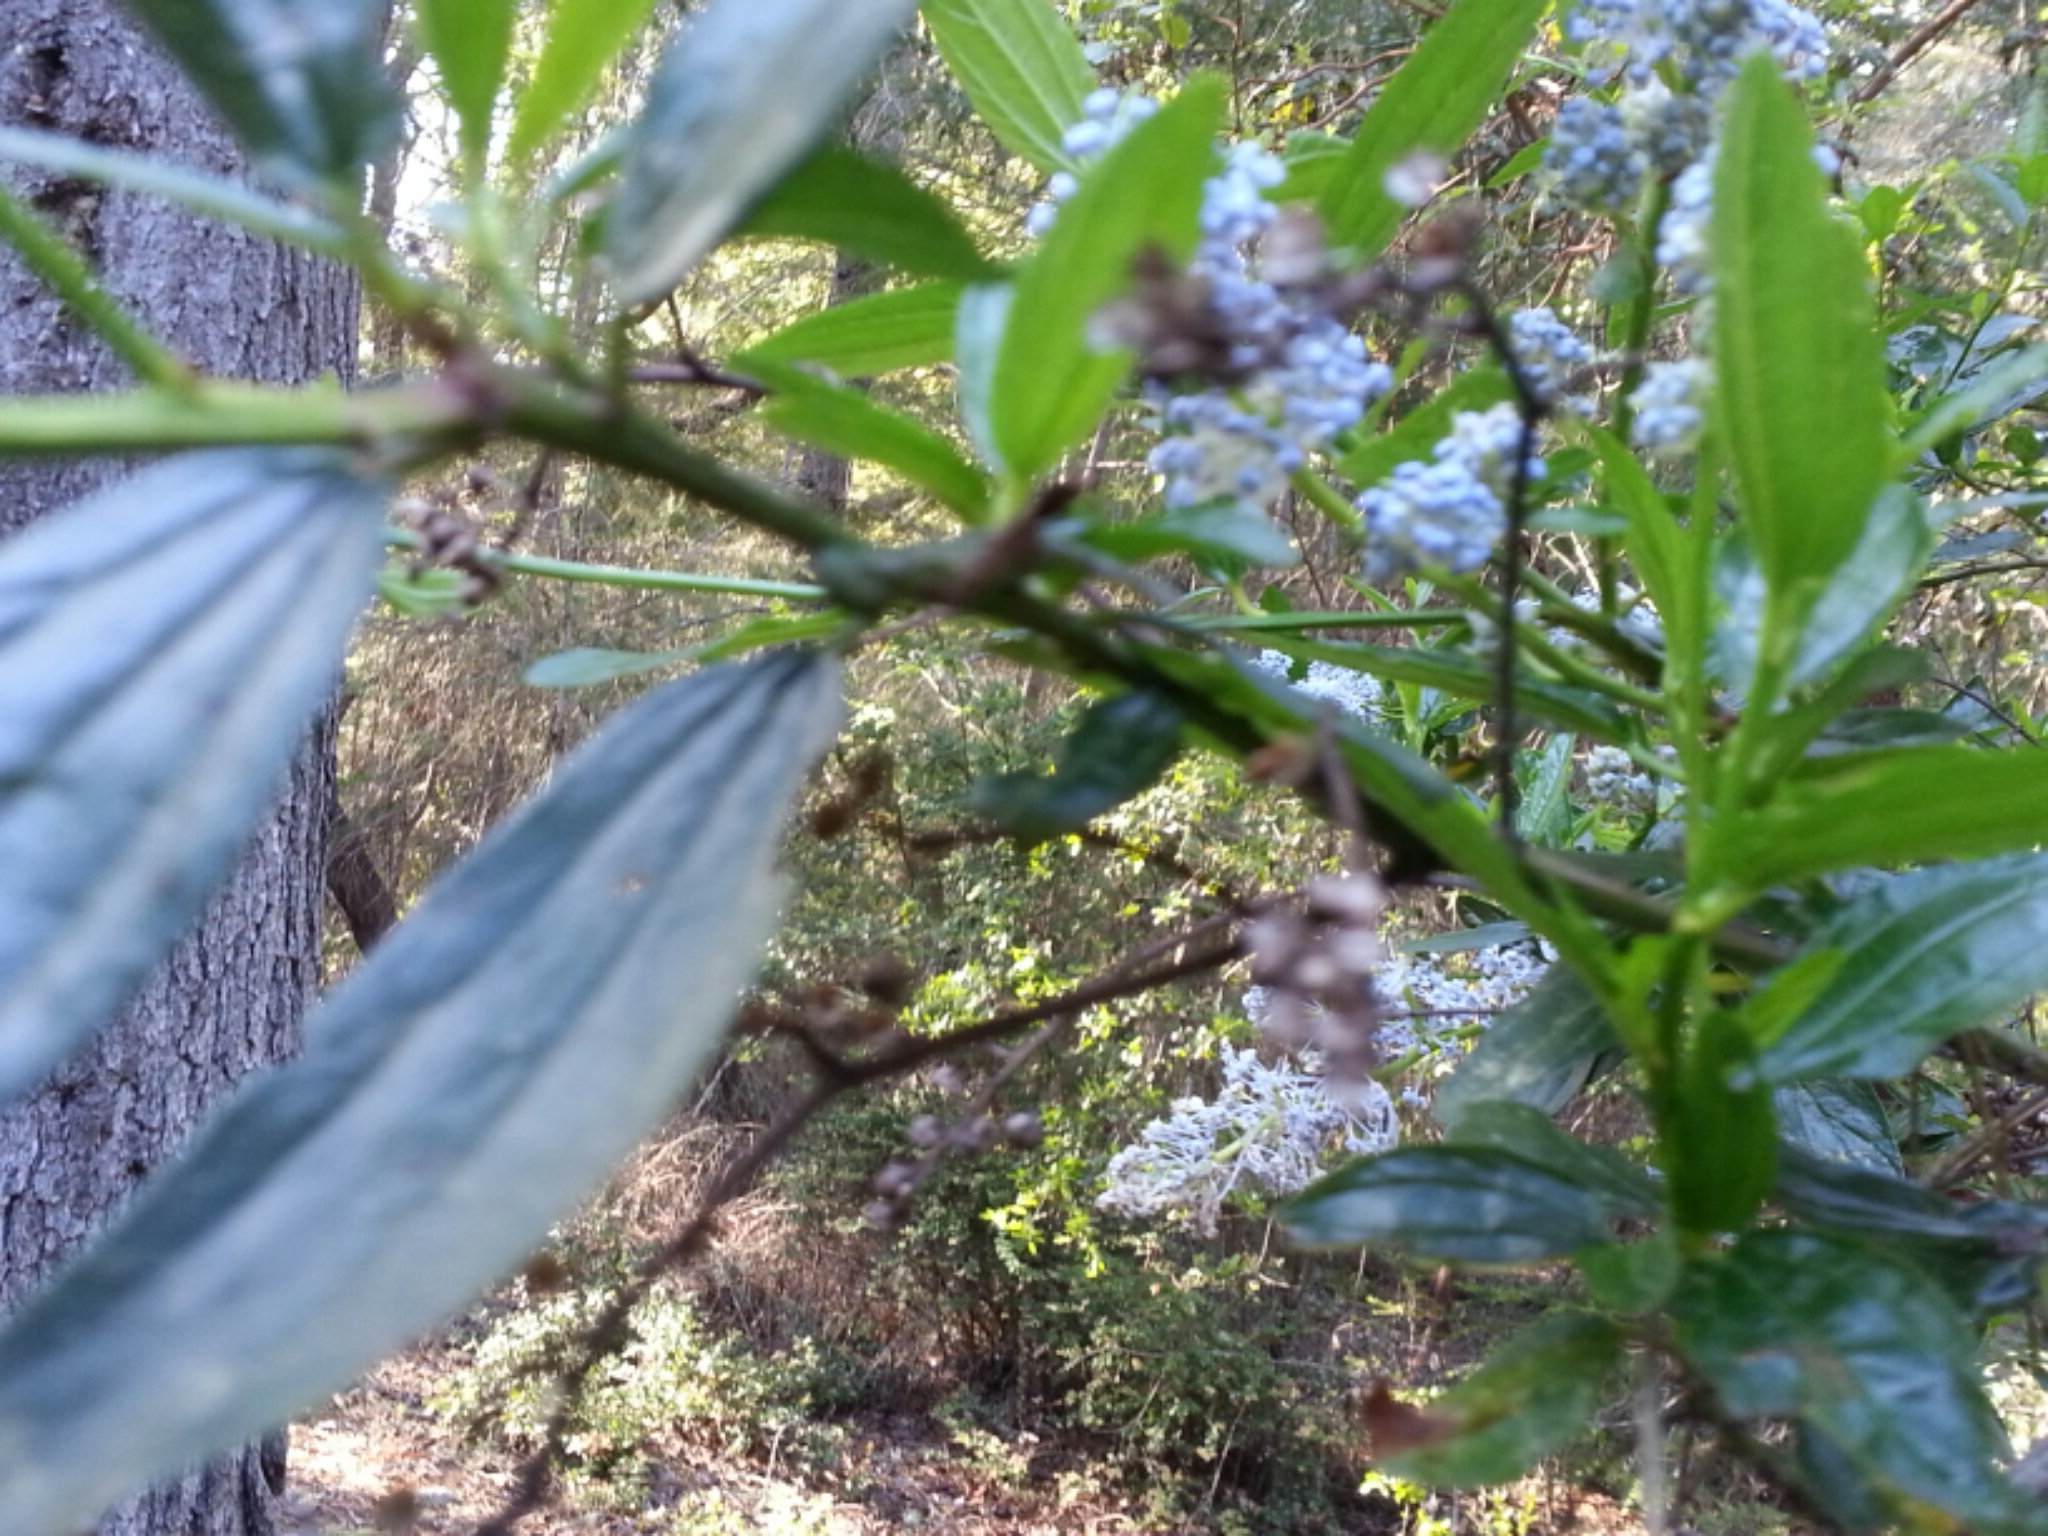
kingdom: Plantae
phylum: Tracheophyta
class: Magnoliopsida
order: Rosales
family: Rhamnaceae
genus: Ceanothus
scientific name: Ceanothus thyrsiflorus
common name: California-lilac
